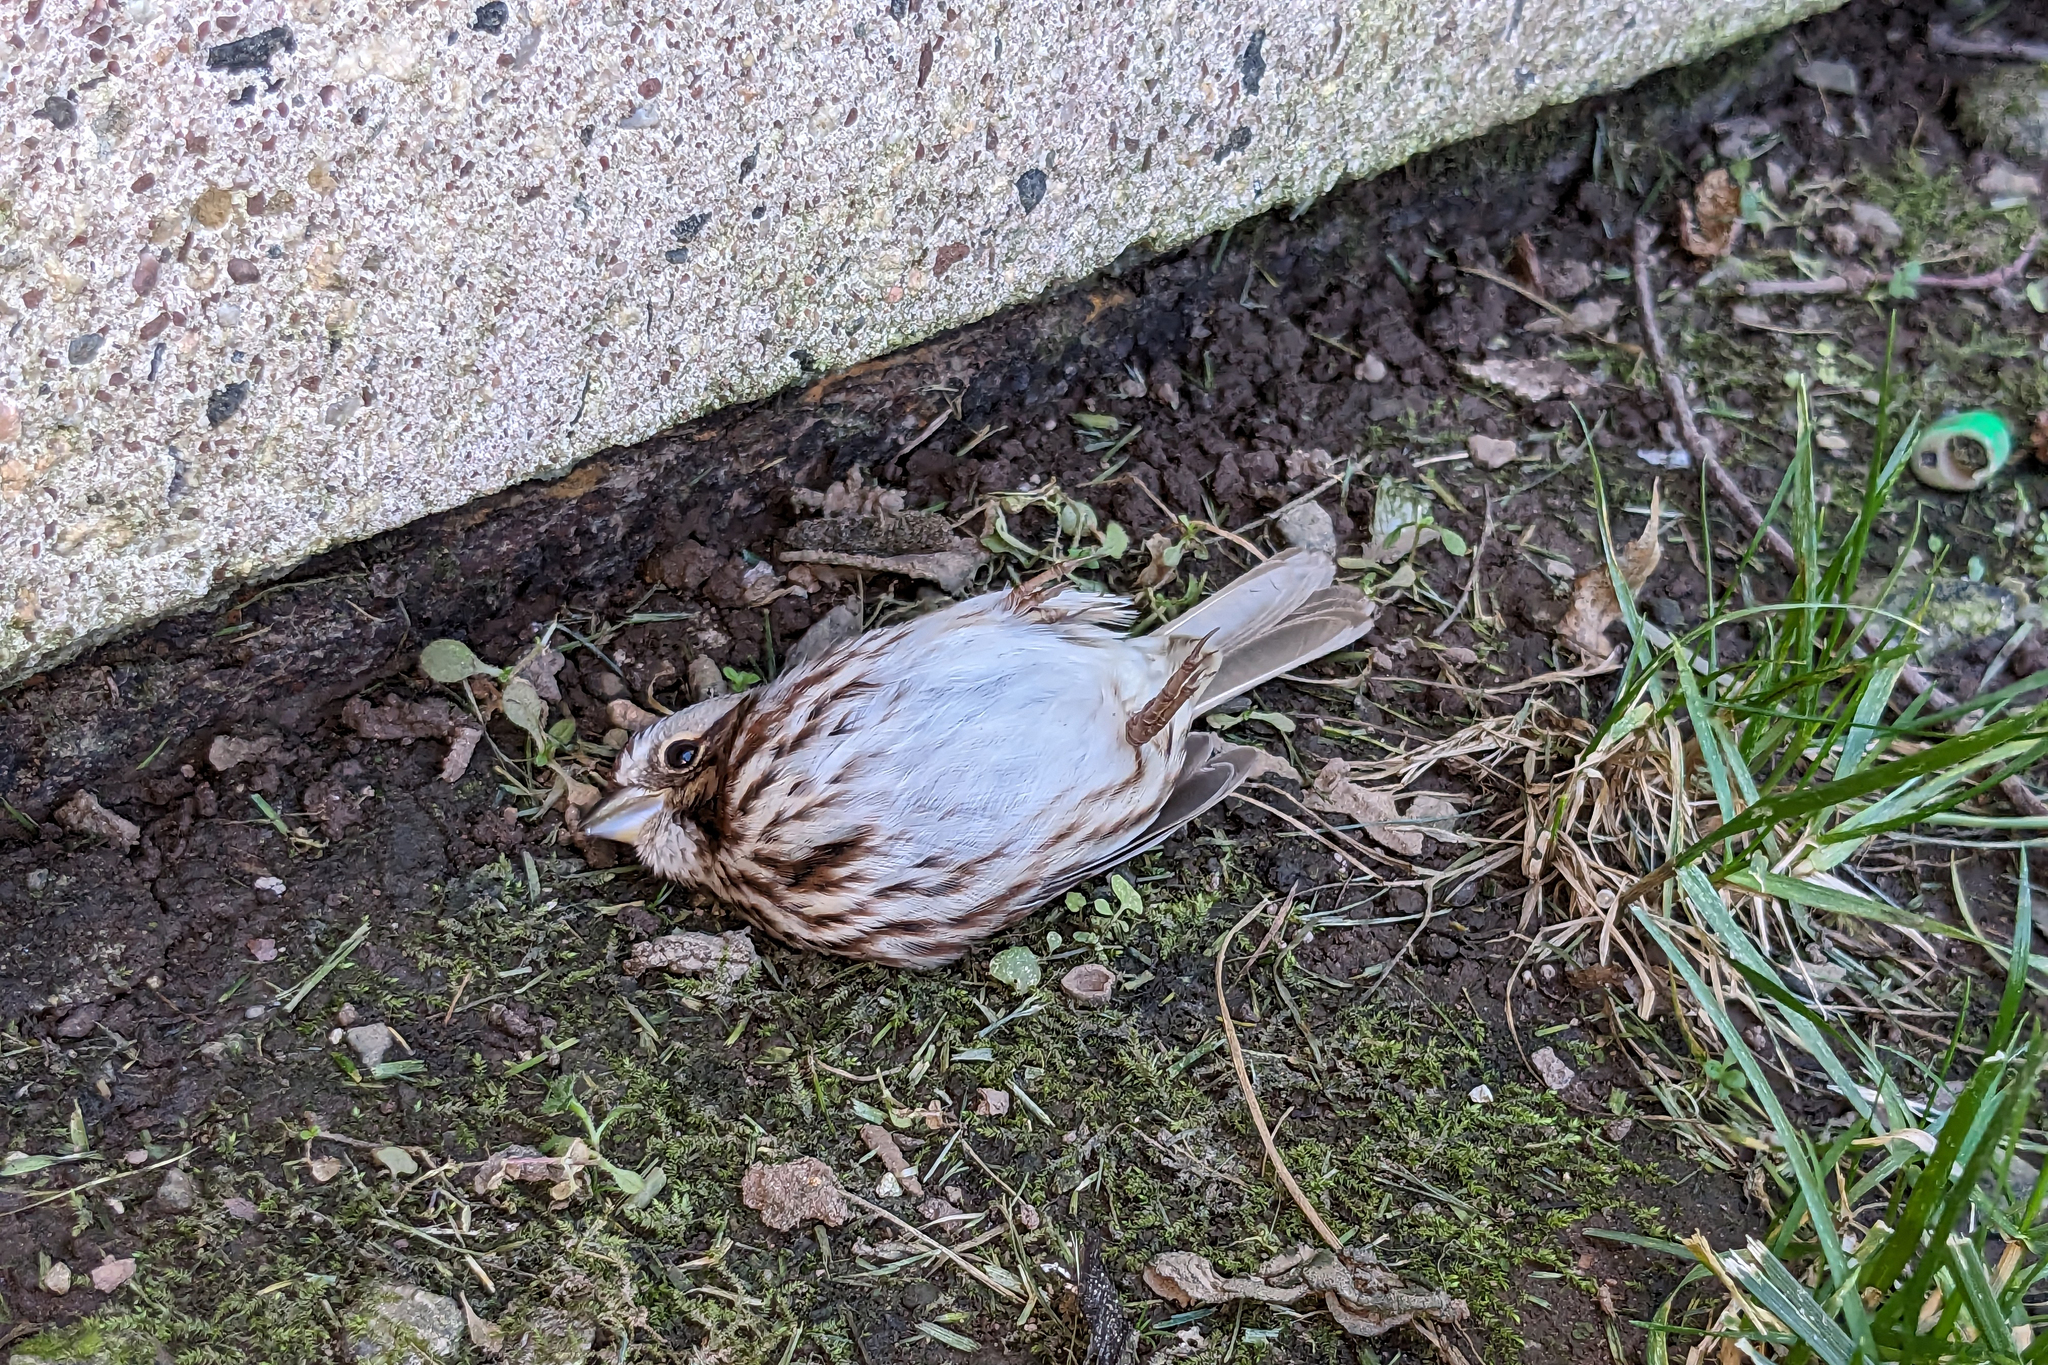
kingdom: Animalia
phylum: Chordata
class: Aves
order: Passeriformes
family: Passerellidae
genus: Melospiza
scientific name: Melospiza melodia
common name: Song sparrow
